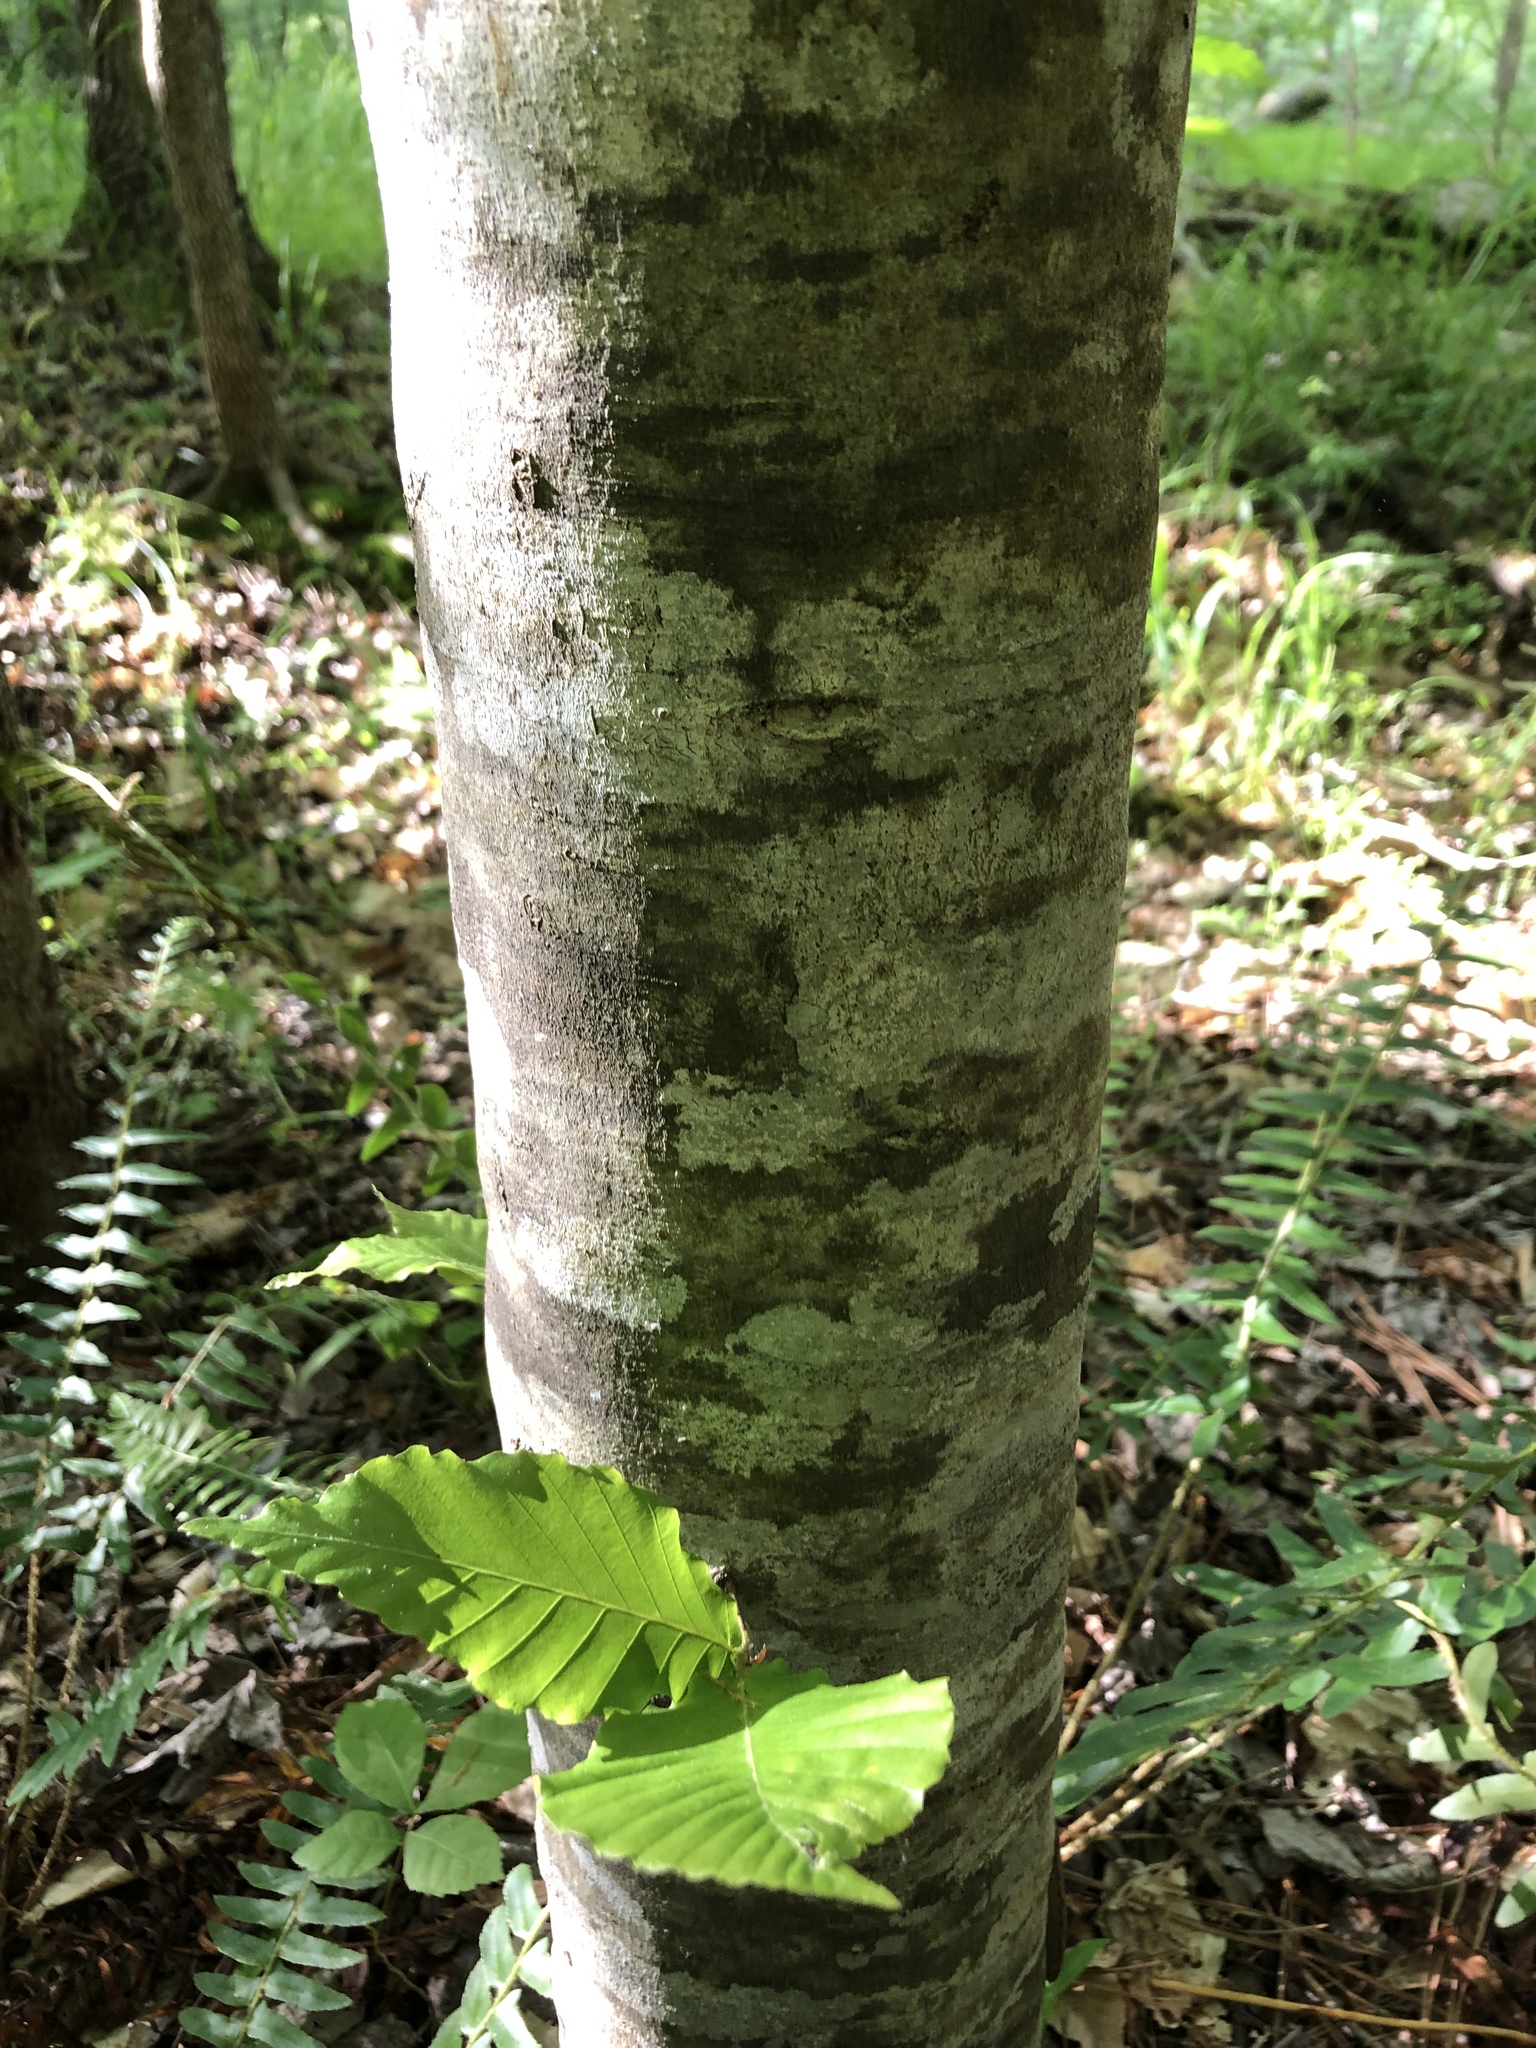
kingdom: Plantae
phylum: Tracheophyta
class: Magnoliopsida
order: Fagales
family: Fagaceae
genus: Fagus
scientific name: Fagus grandifolia
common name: American beech
